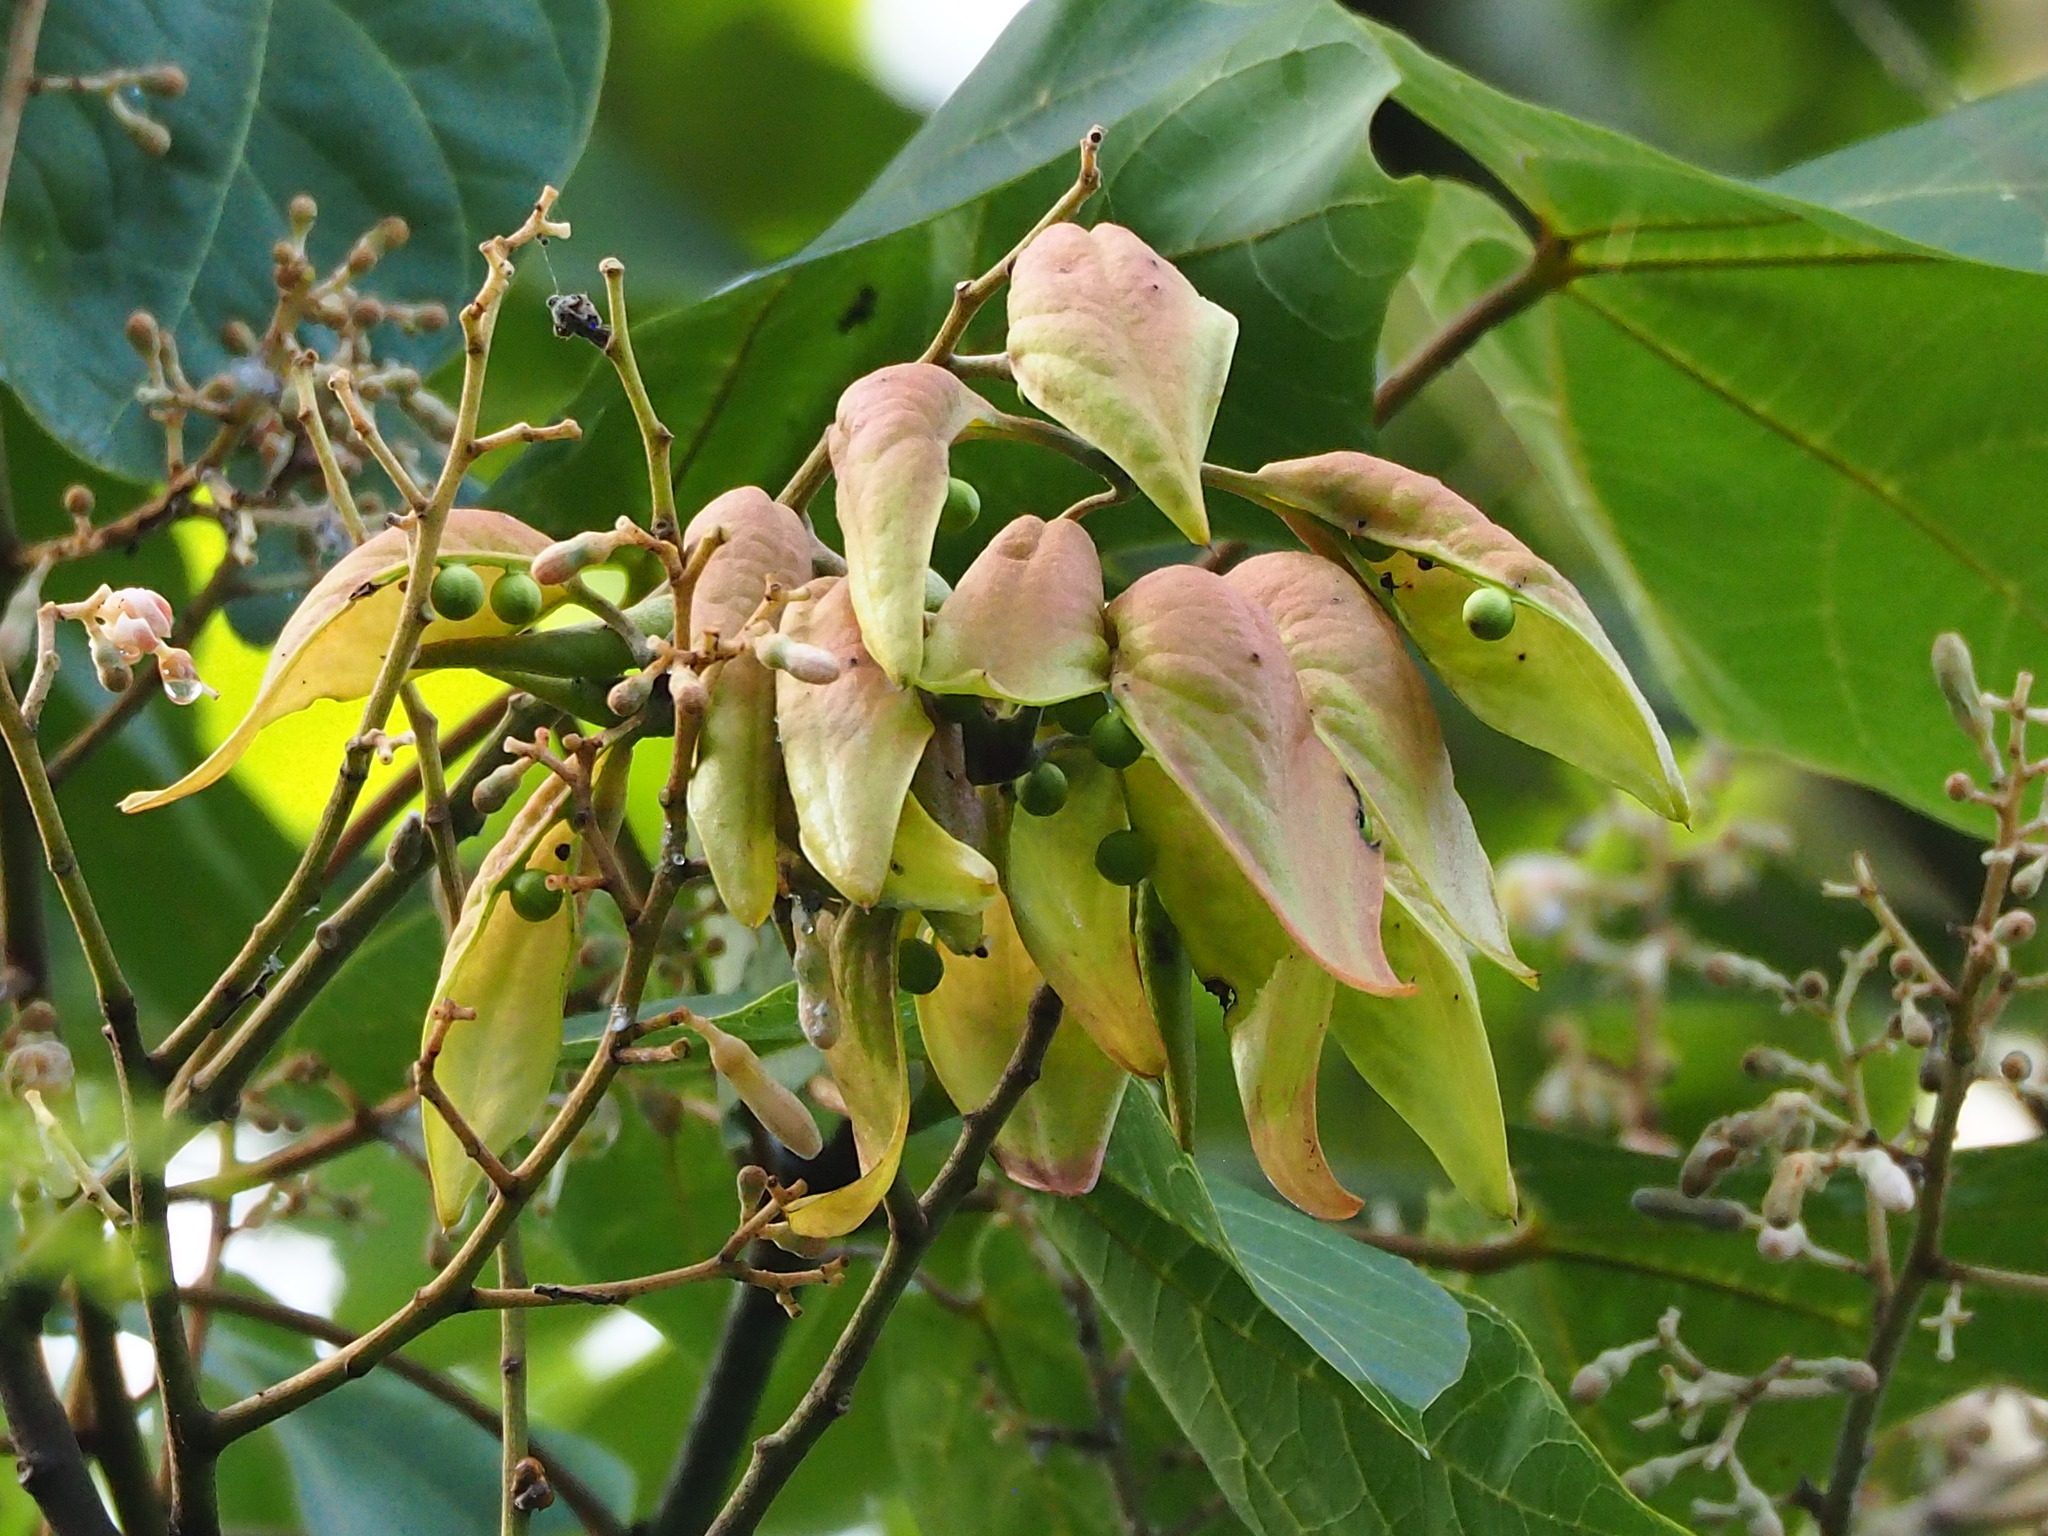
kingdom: Plantae
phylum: Tracheophyta
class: Magnoliopsida
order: Malvales
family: Malvaceae
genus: Firmiana
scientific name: Firmiana simplex
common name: Chinese parasoltree
